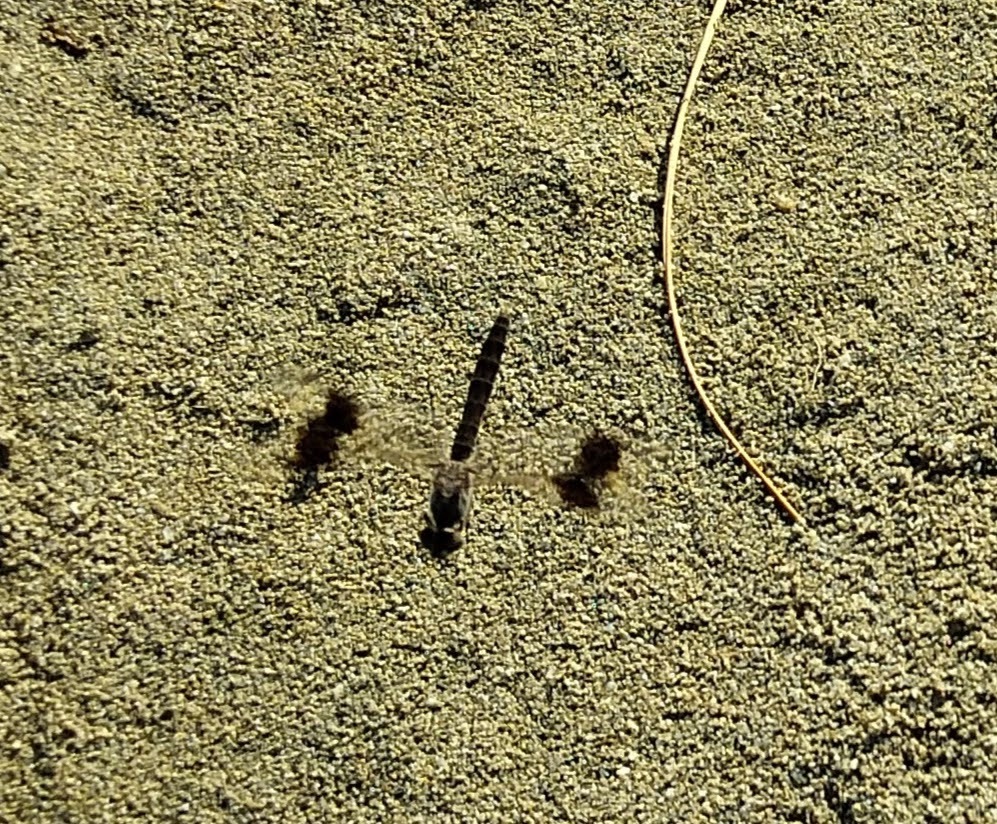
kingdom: Animalia
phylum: Arthropoda
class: Insecta
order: Odonata
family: Libellulidae
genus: Brachythemis
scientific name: Brachythemis impartita
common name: Banded groundling
